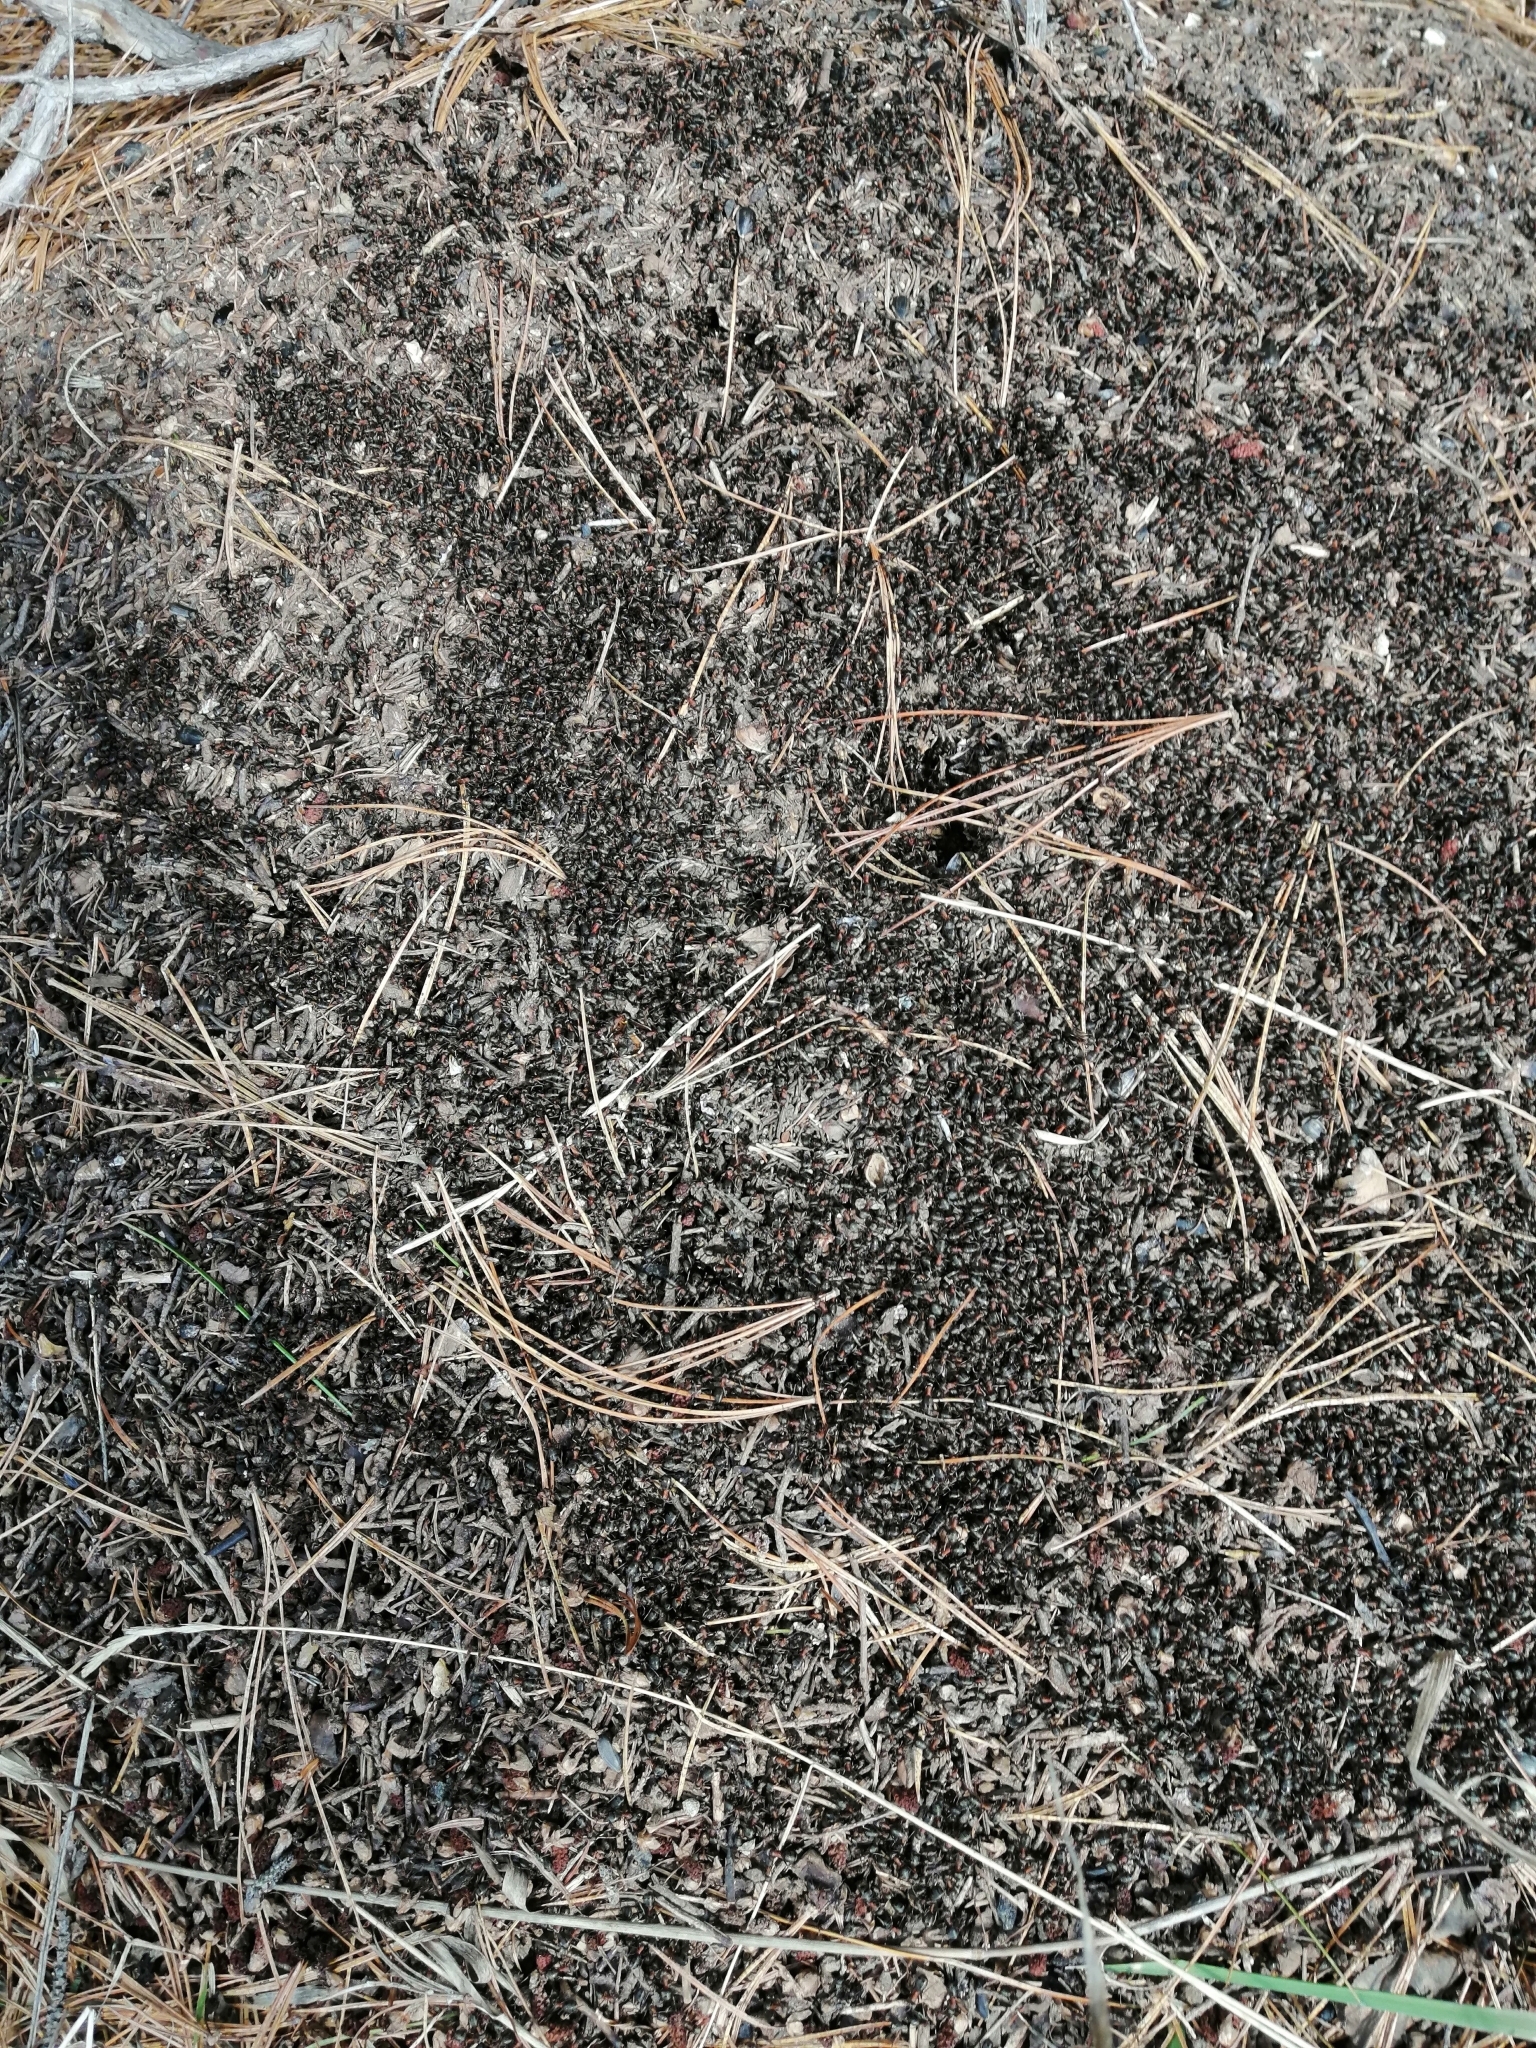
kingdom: Animalia
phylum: Arthropoda
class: Insecta
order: Hymenoptera
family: Formicidae
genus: Formica
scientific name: Formica rufa
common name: Red wood ant
